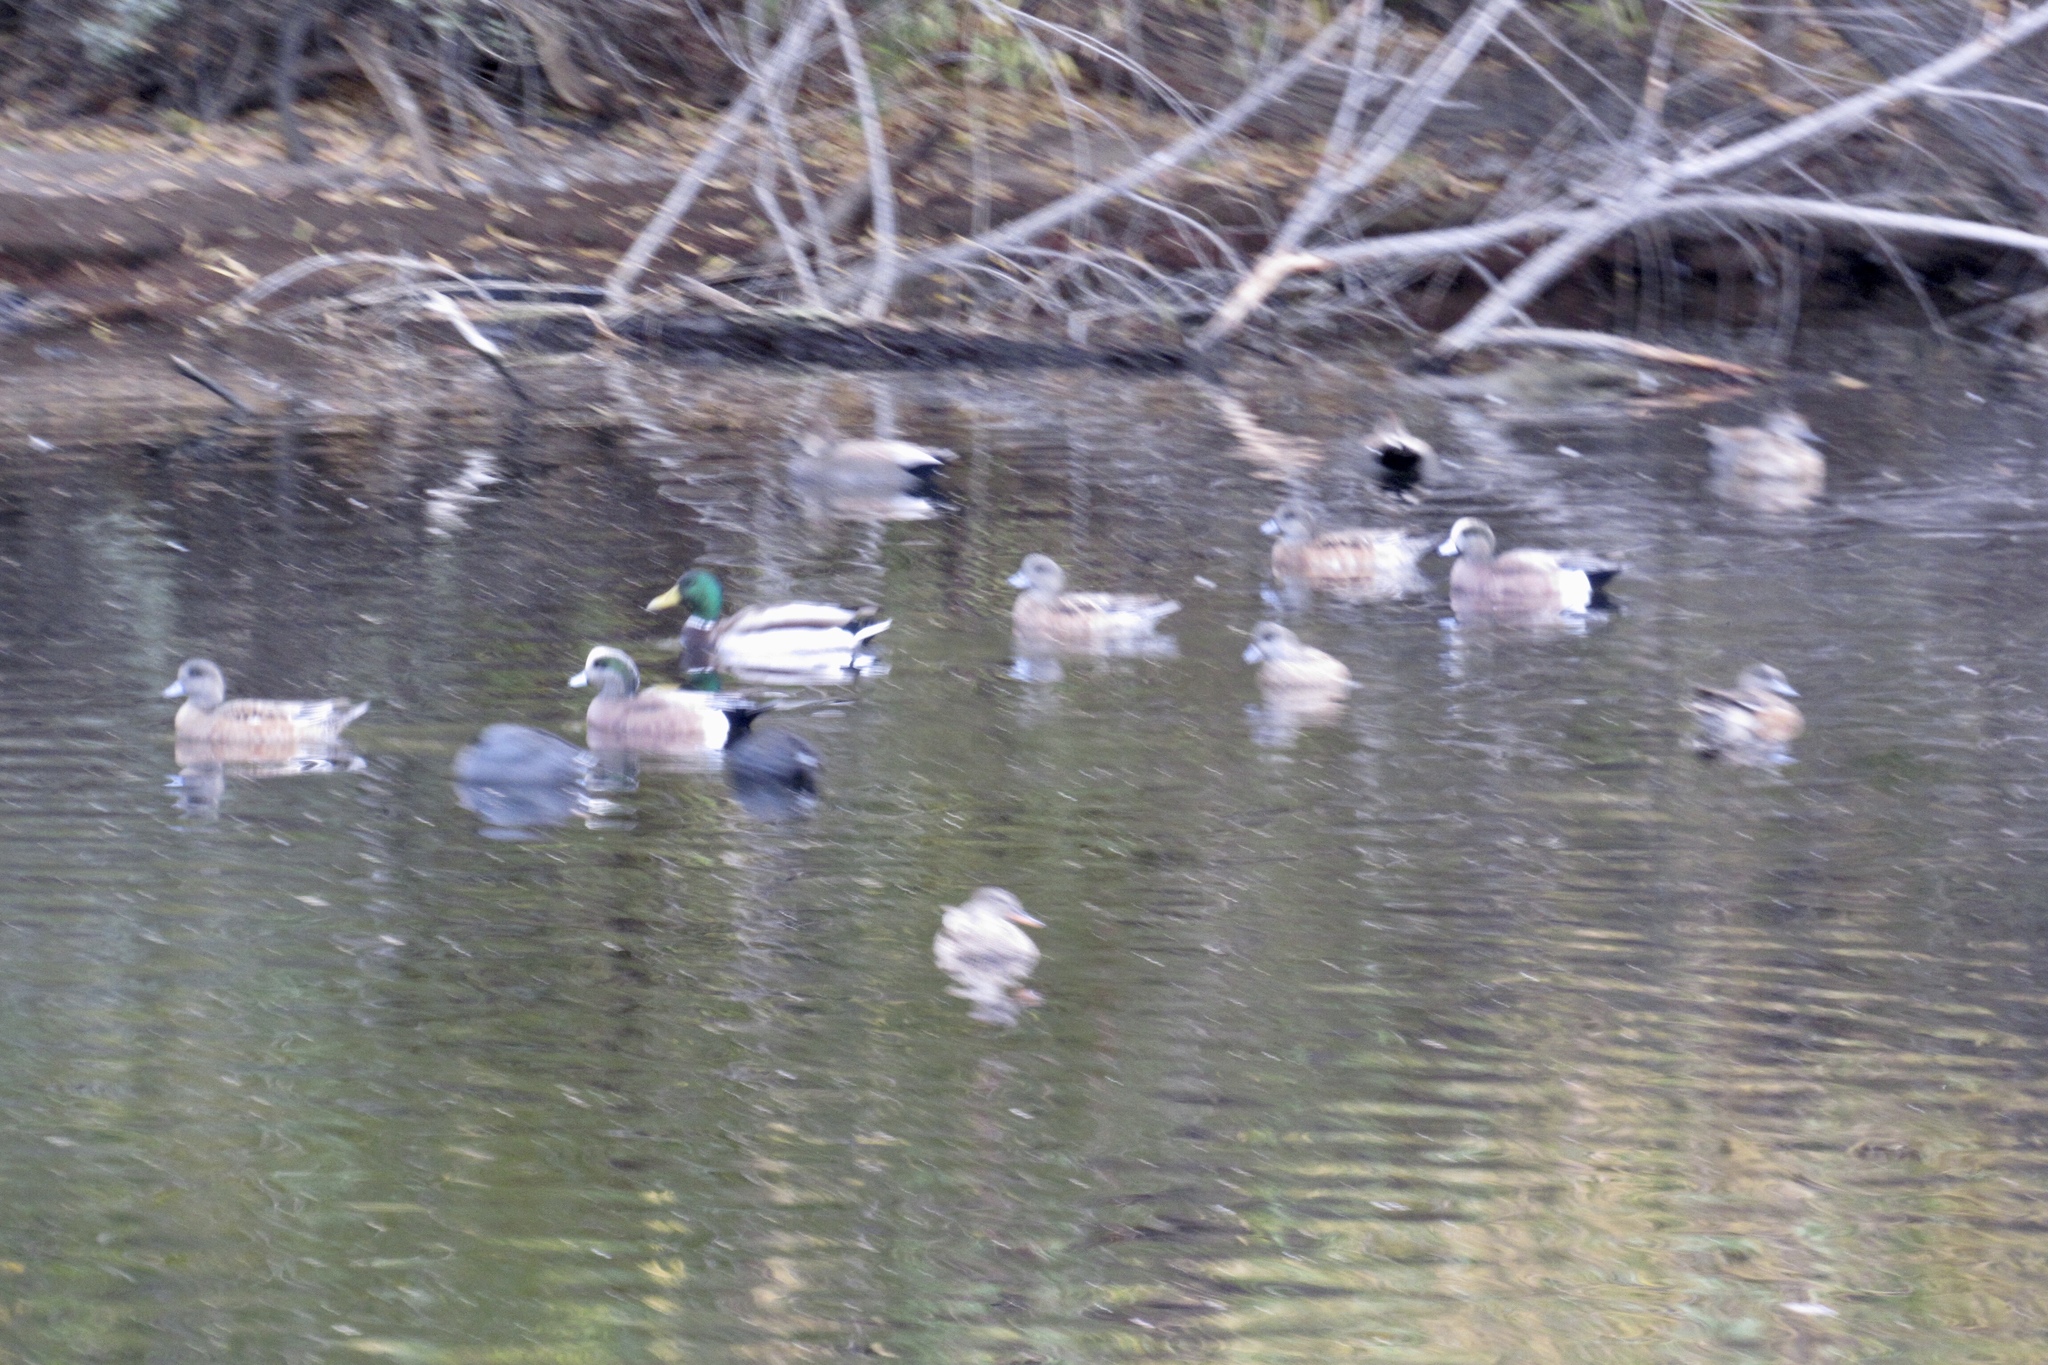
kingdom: Animalia
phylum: Chordata
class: Aves
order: Anseriformes
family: Anatidae
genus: Anas
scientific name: Anas platyrhynchos
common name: Mallard
